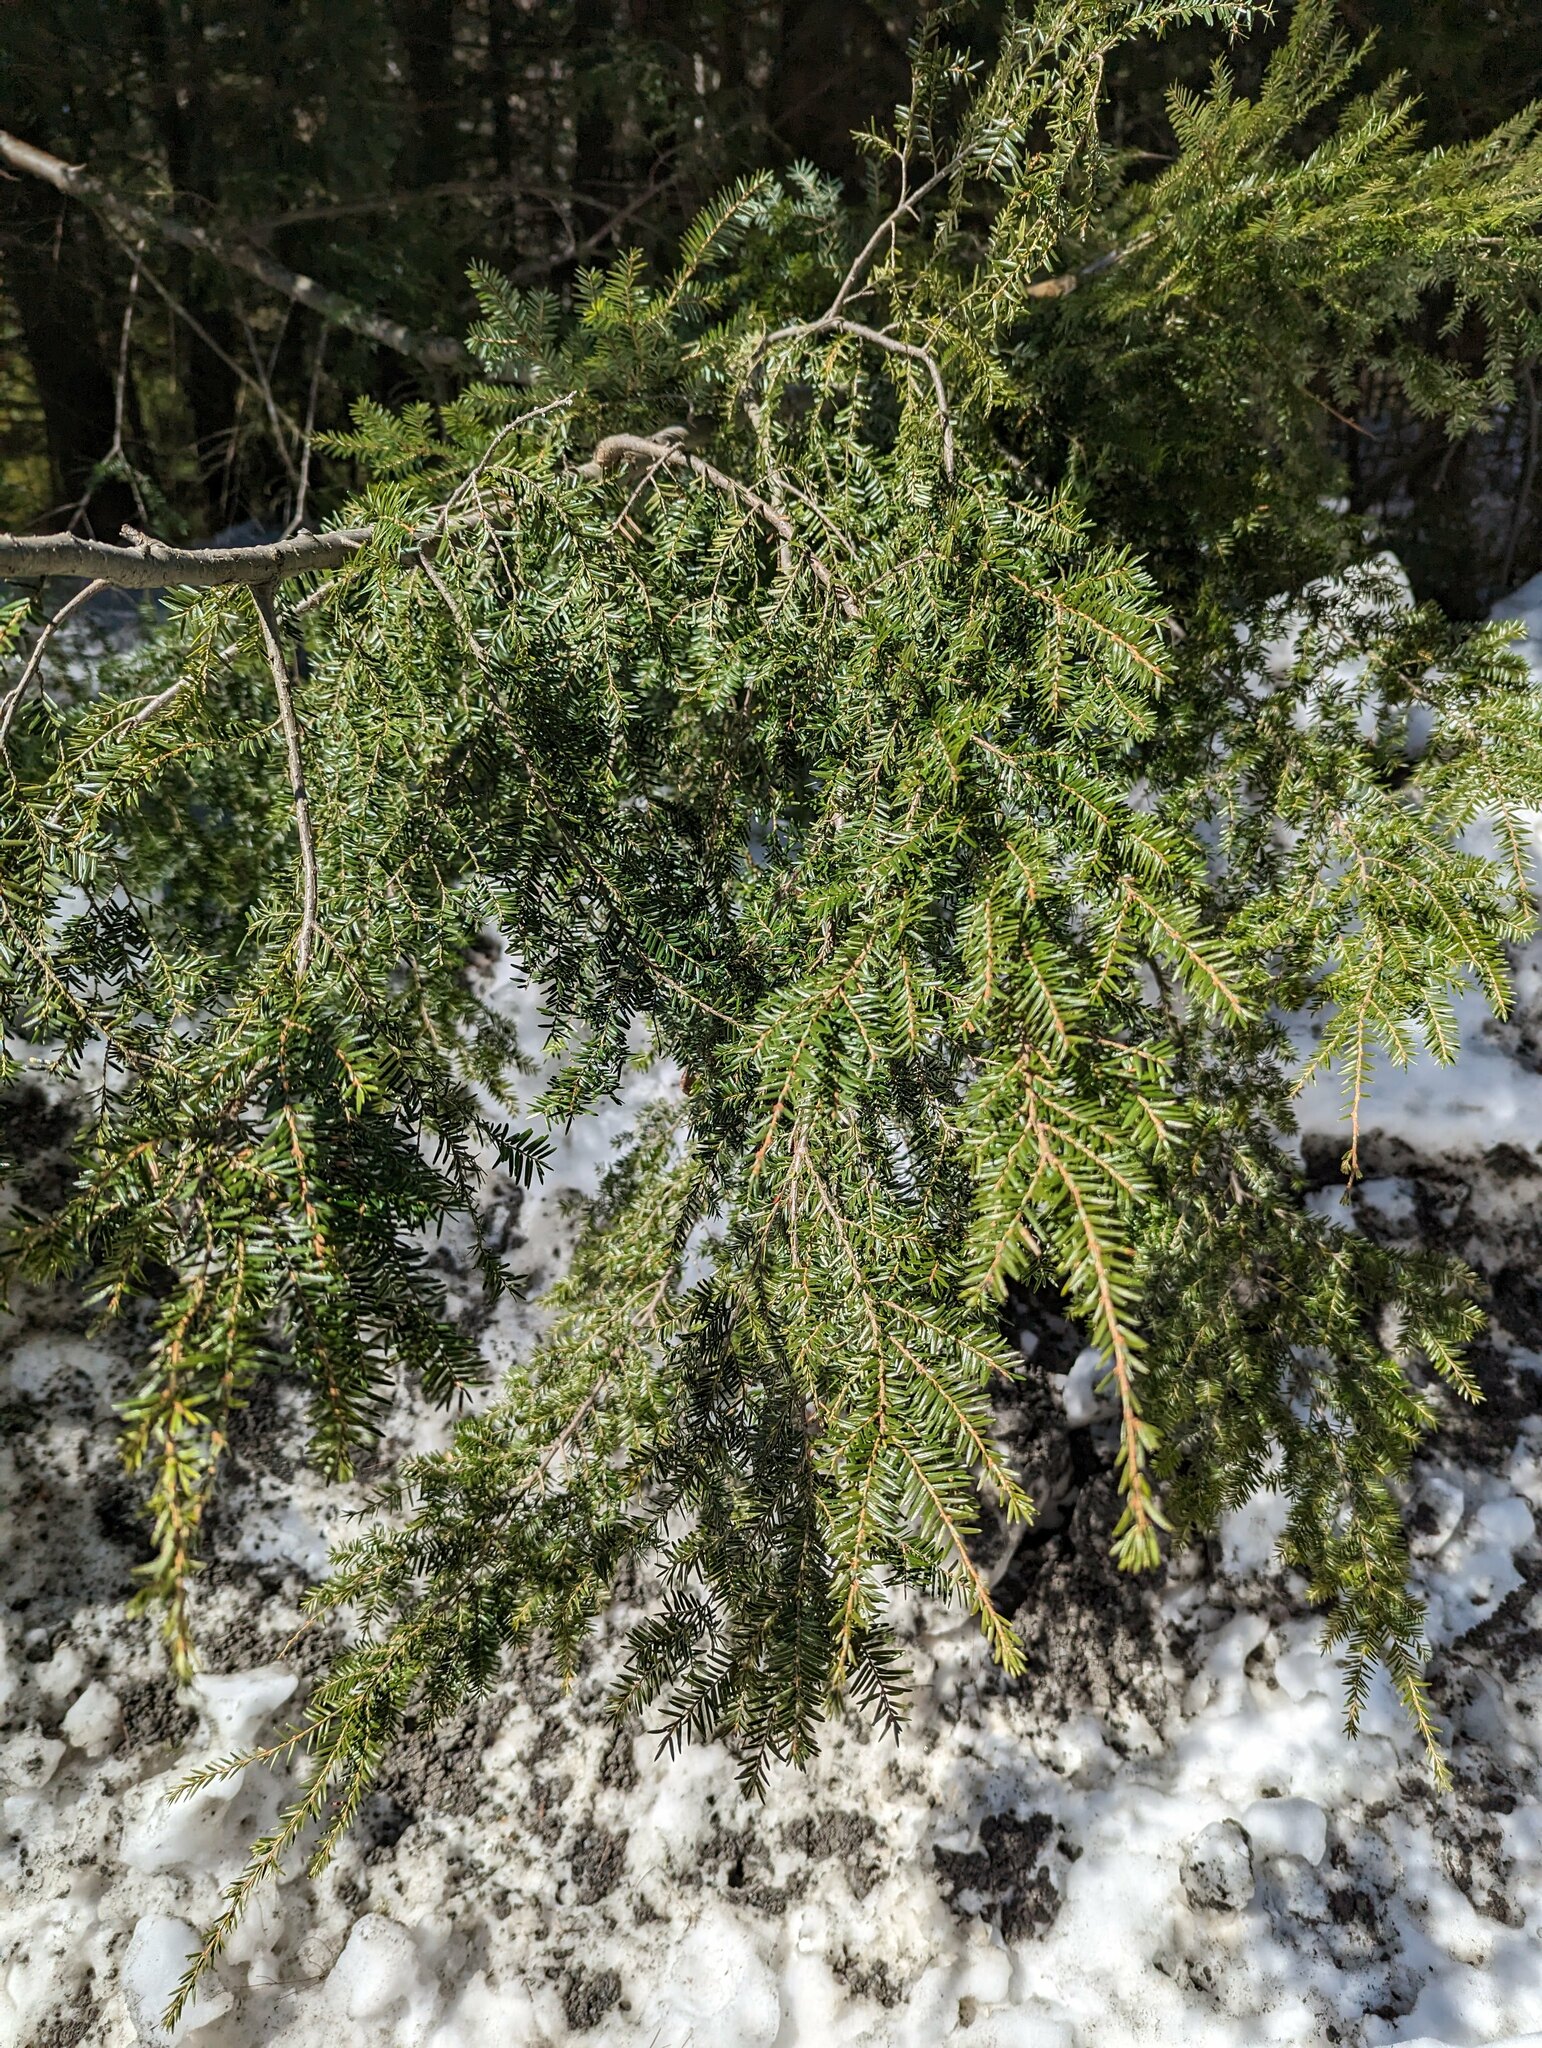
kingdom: Plantae
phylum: Tracheophyta
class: Pinopsida
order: Pinales
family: Pinaceae
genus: Tsuga
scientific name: Tsuga canadensis
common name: Eastern hemlock
